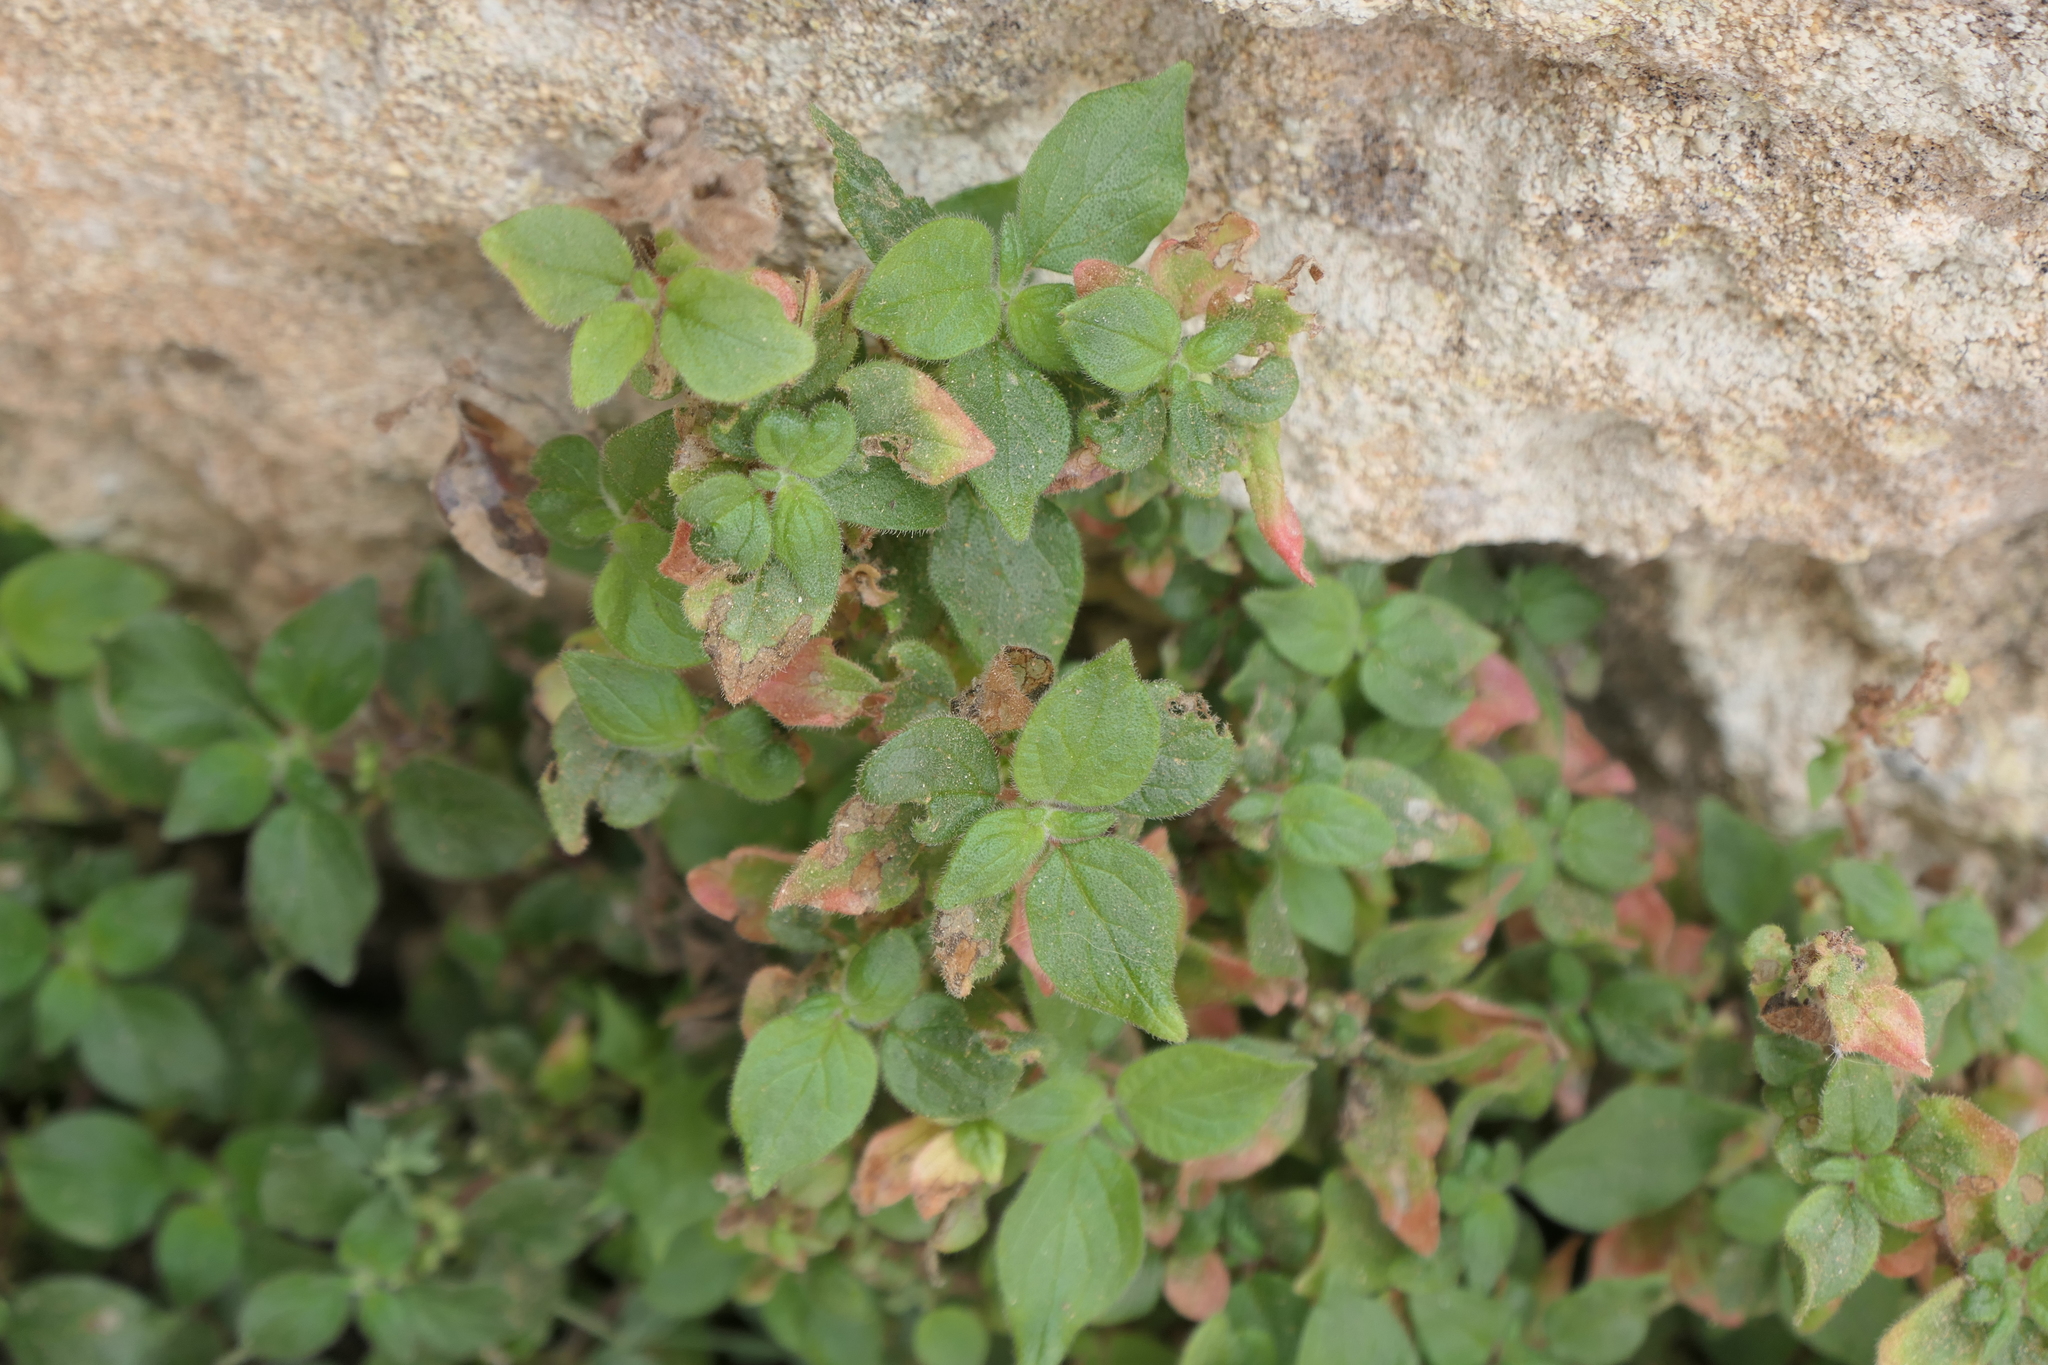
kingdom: Plantae
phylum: Tracheophyta
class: Magnoliopsida
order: Rosales
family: Urticaceae
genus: Parietaria
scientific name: Parietaria judaica
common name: Pellitory-of-the-wall
